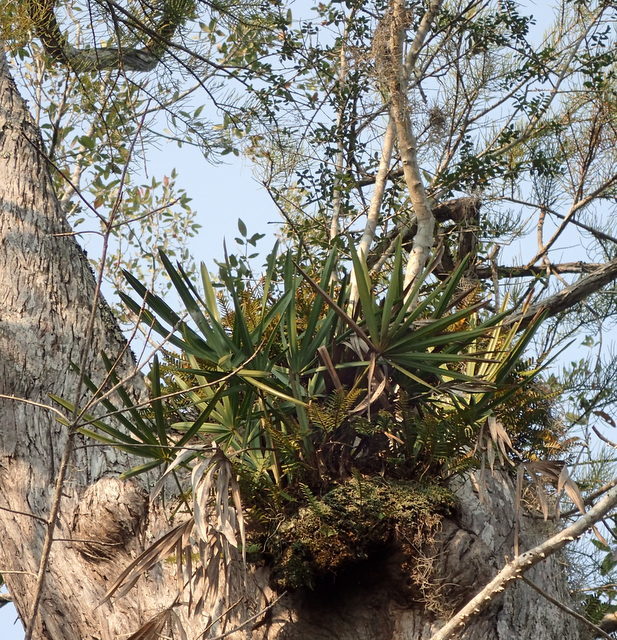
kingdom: Plantae
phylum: Tracheophyta
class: Liliopsida
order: Arecales
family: Arecaceae
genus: Serenoa
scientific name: Serenoa repens
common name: Saw-palmetto
